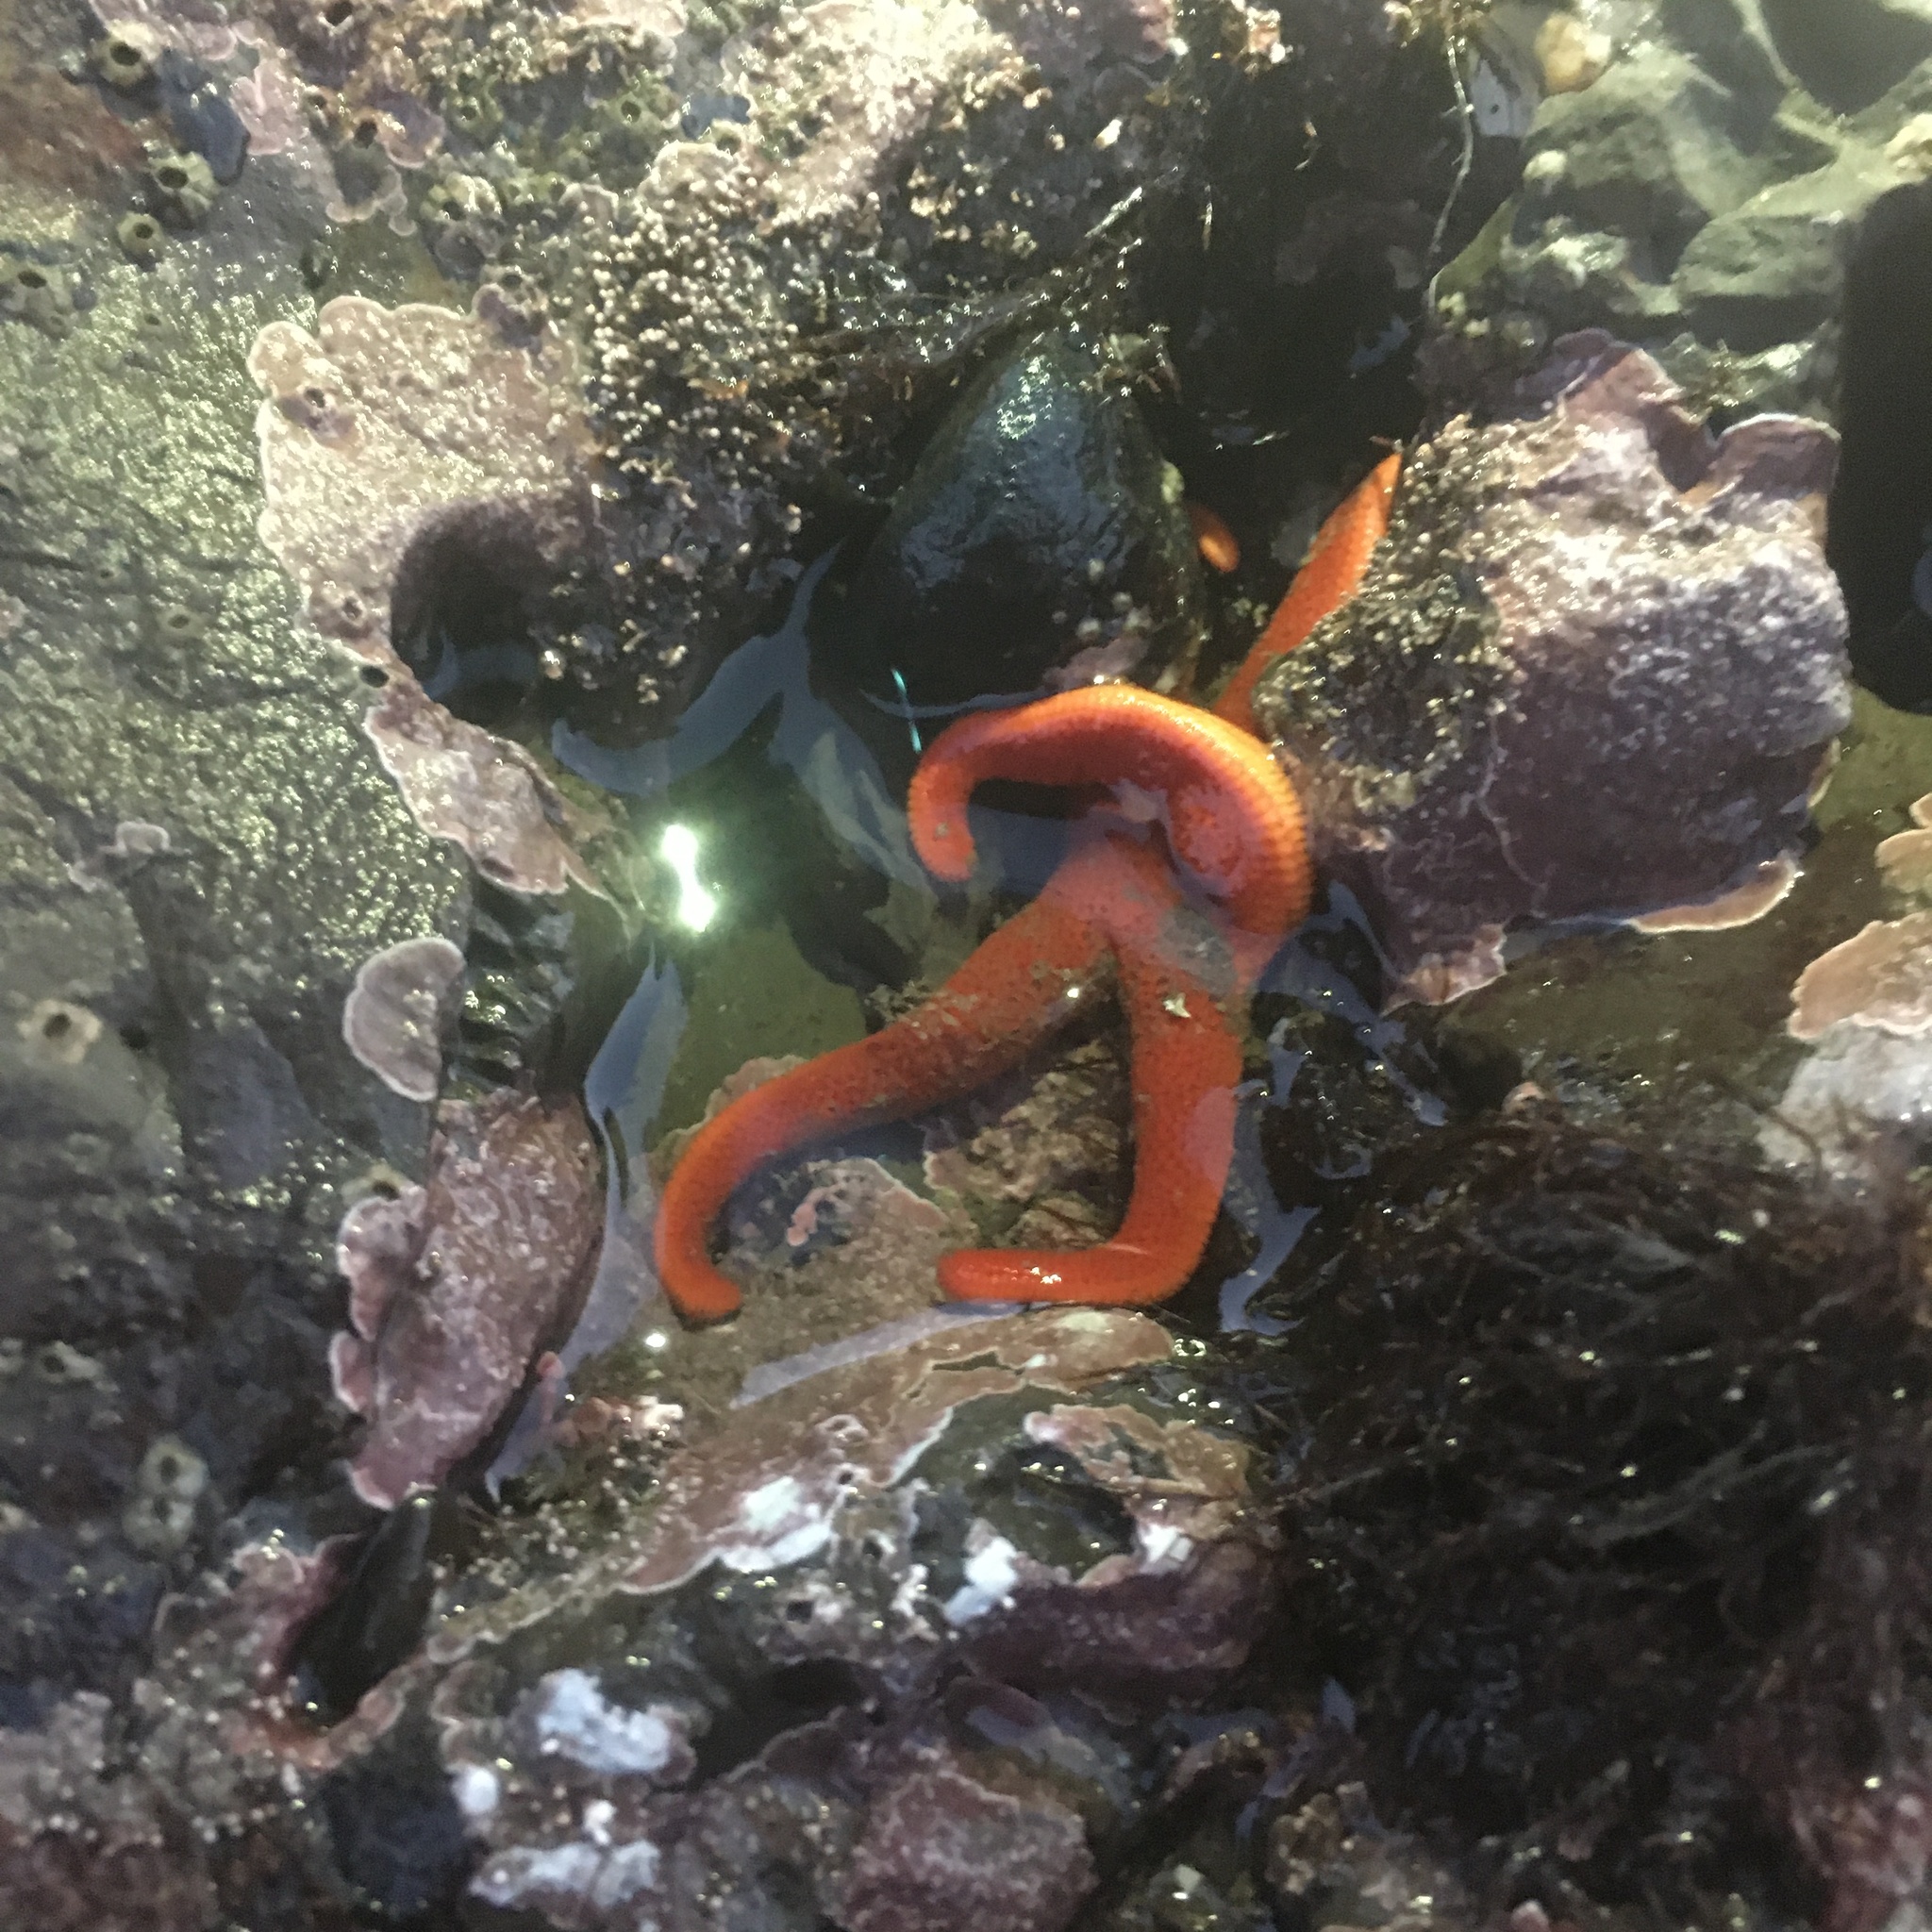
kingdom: Animalia
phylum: Echinodermata
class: Asteroidea
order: Spinulosida
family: Echinasteridae
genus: Henricia
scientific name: Henricia leviuscula
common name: Pacific blood star
